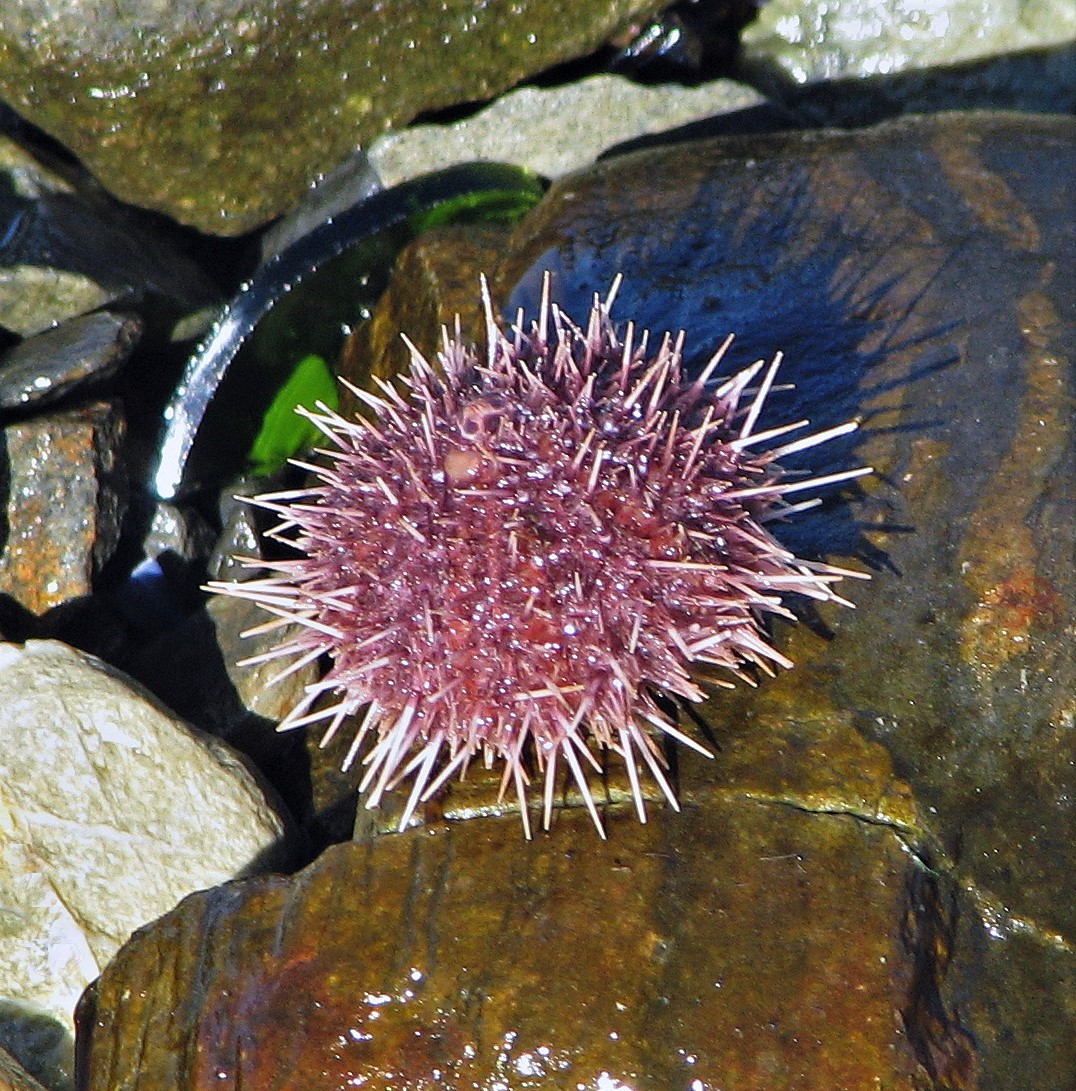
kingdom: Animalia
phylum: Echinodermata
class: Echinoidea
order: Camarodonta
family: Temnopleuridae
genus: Pseudechinus
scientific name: Pseudechinus magellanicus
